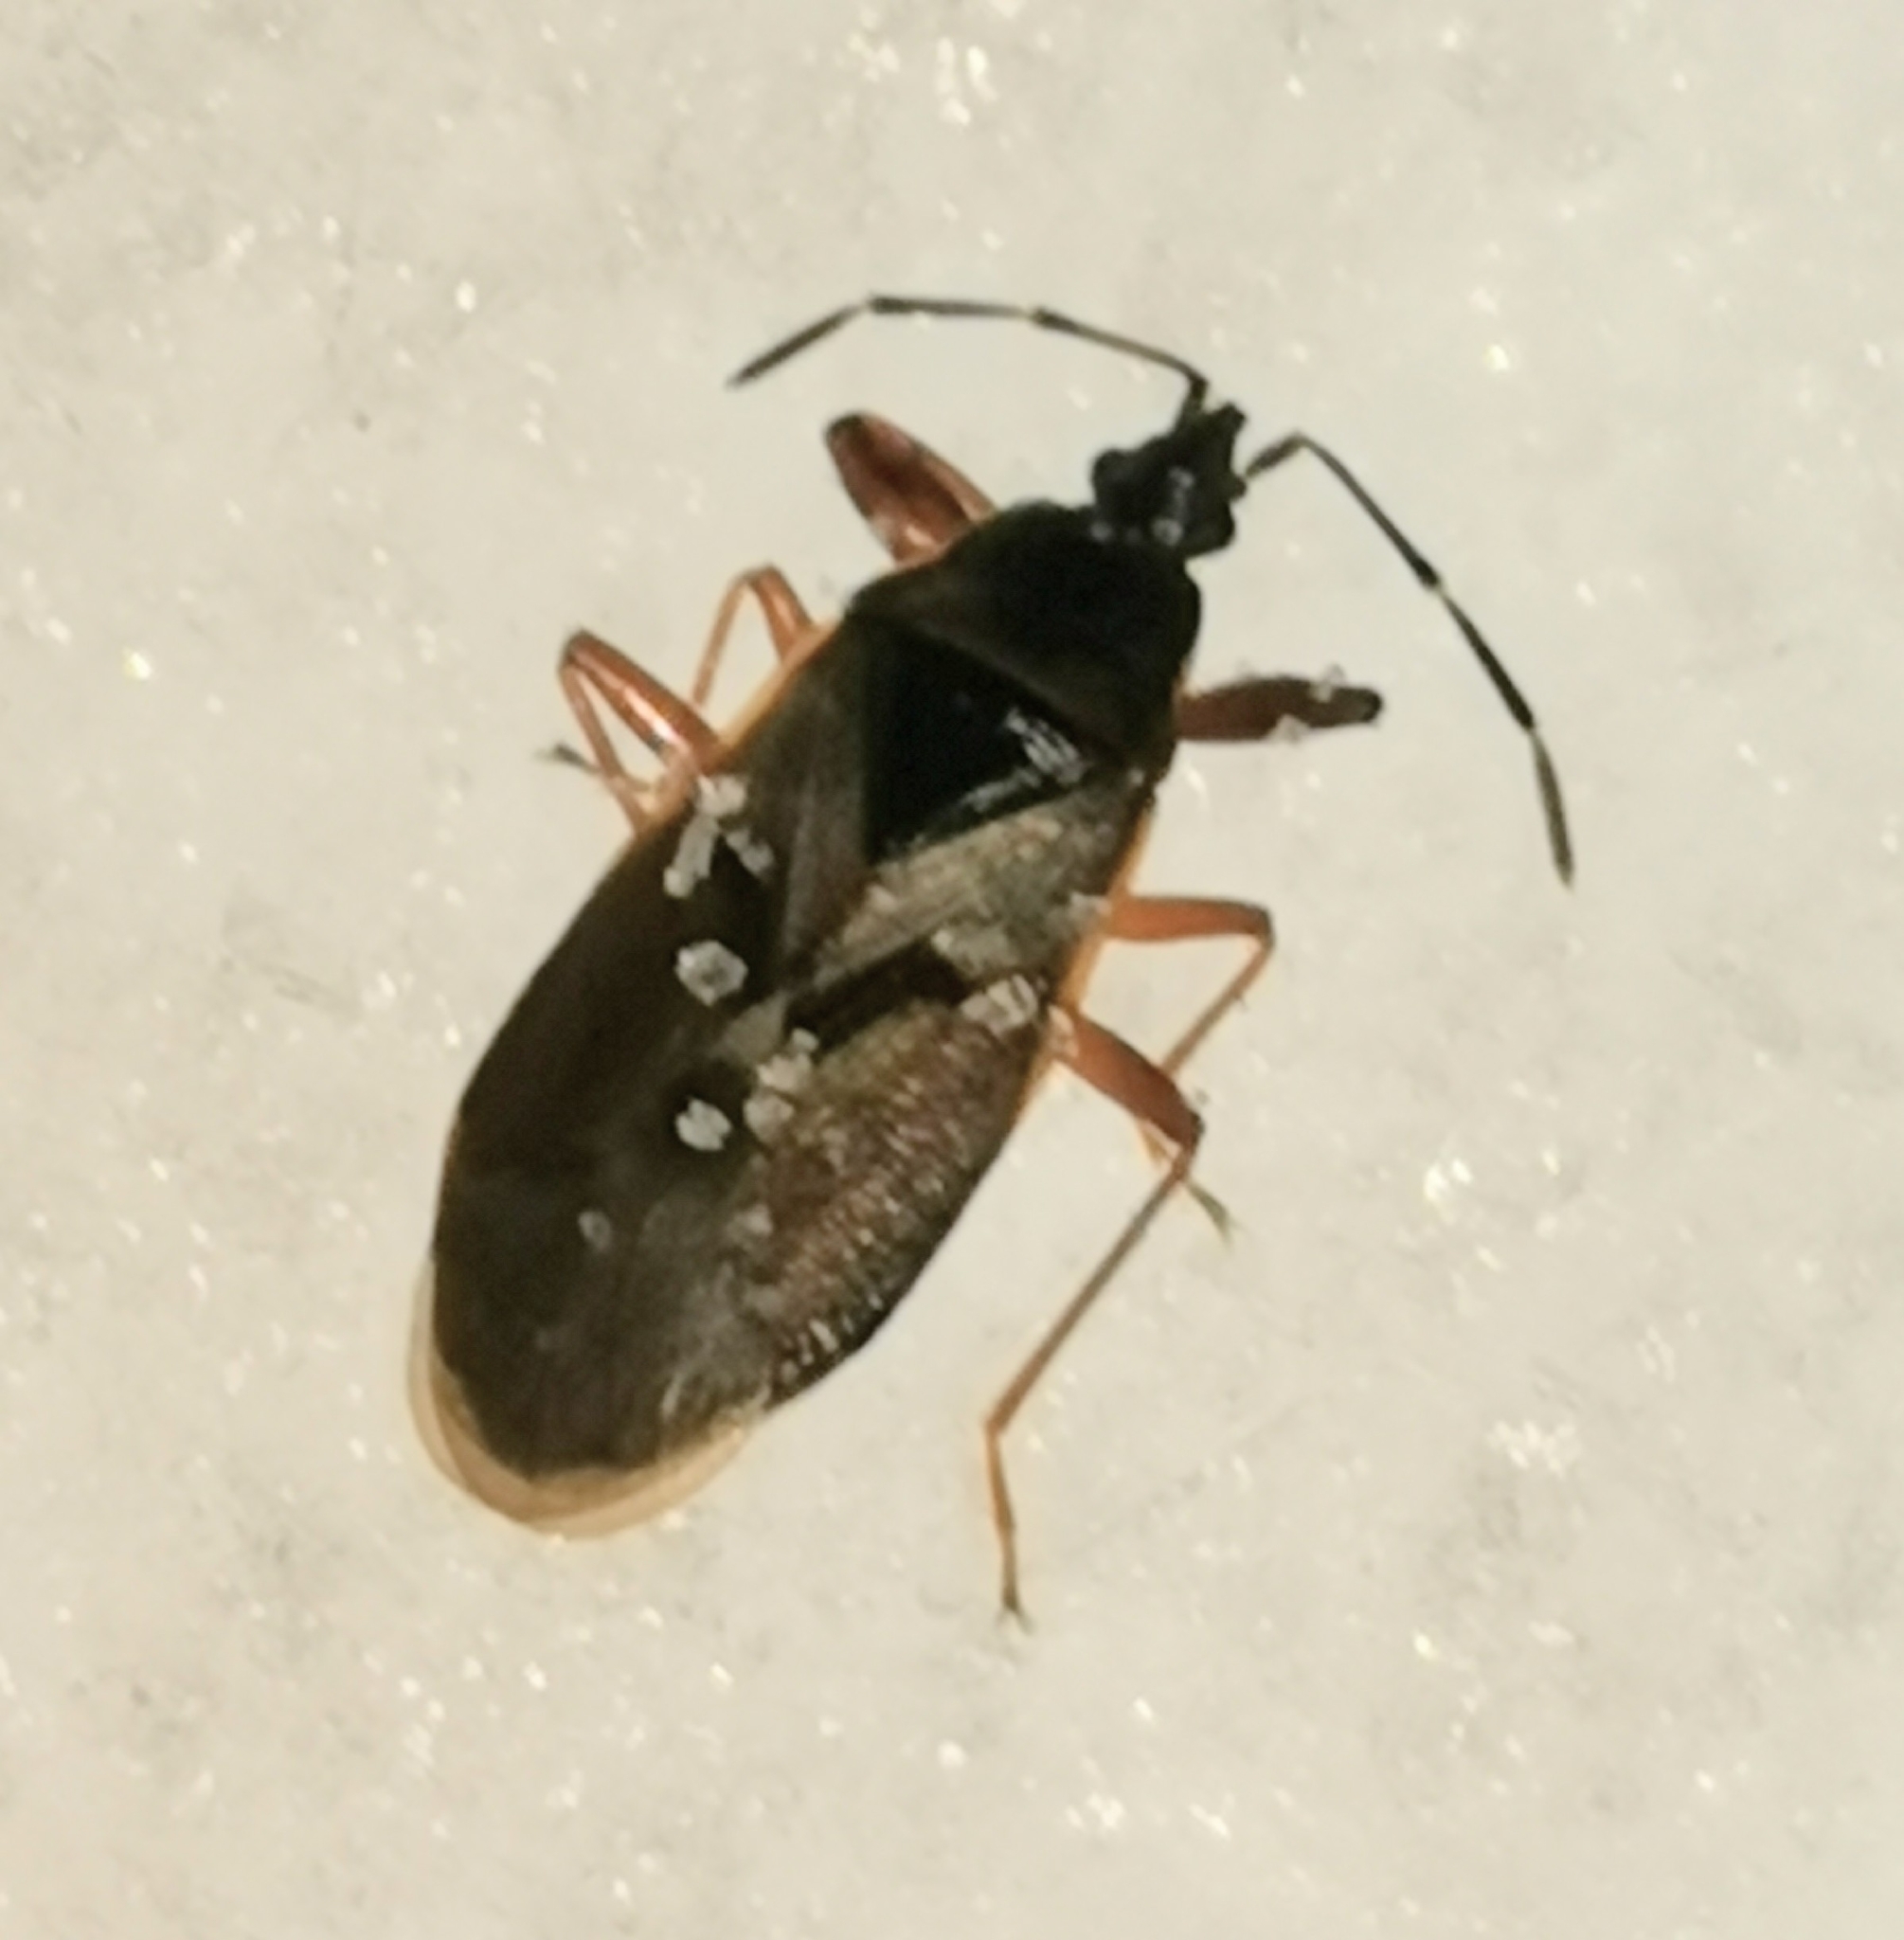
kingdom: Animalia
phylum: Arthropoda
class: Insecta
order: Hemiptera
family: Rhyparochromidae
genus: Gastrodes
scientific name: Gastrodes abietum
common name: Spruce cone bug
